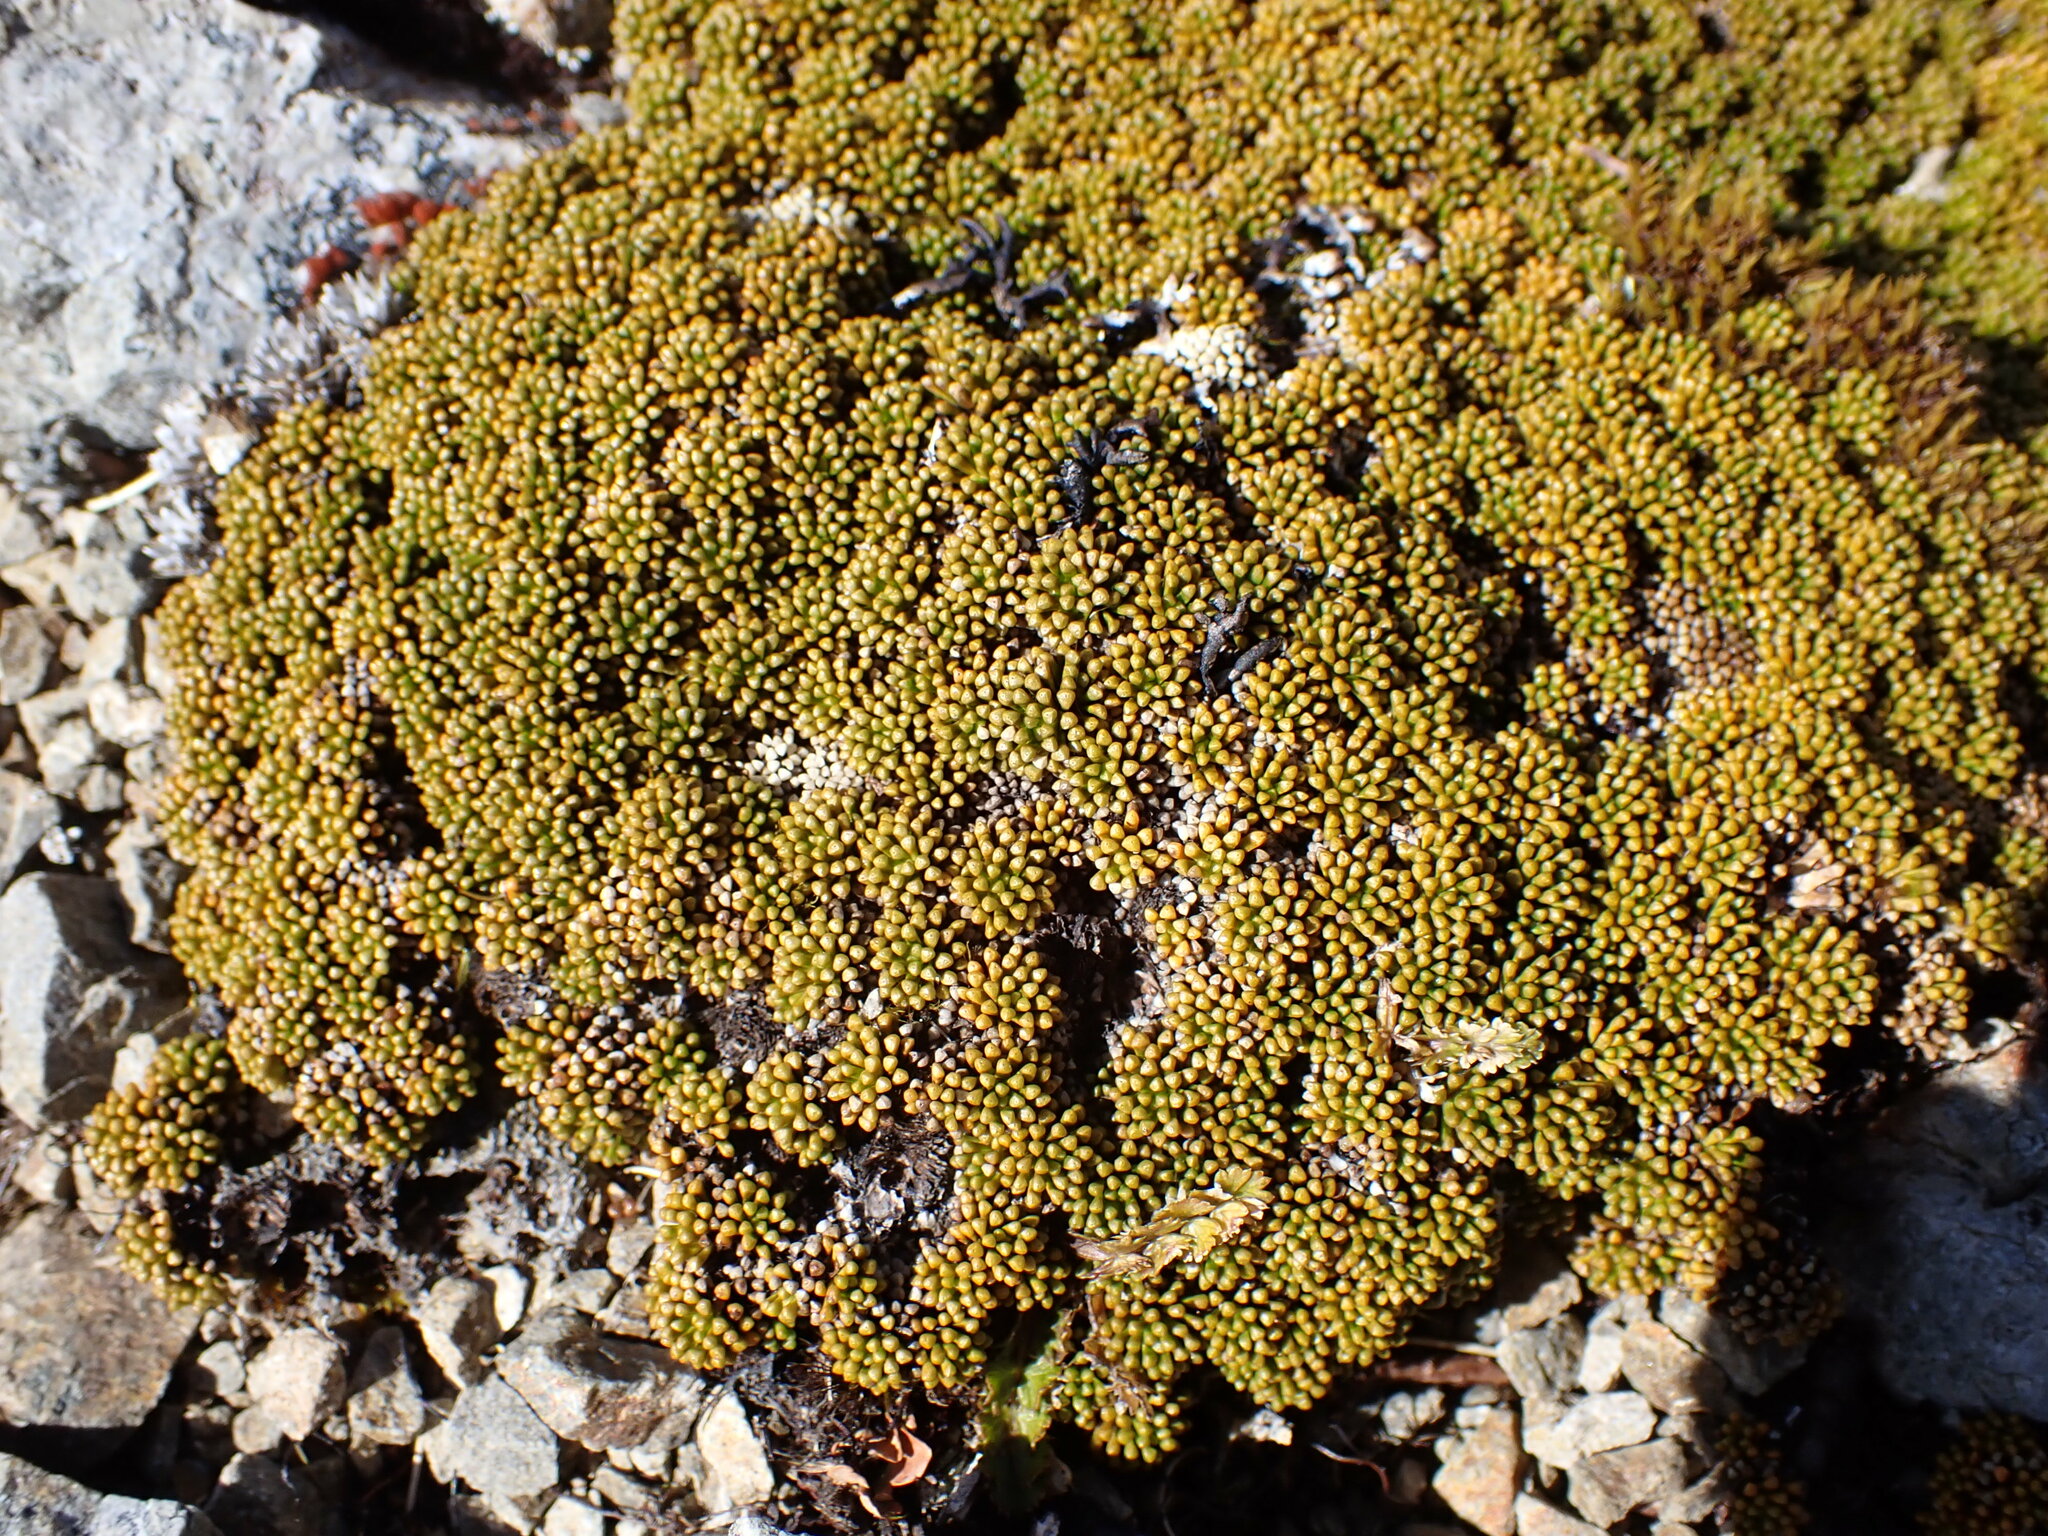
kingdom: Plantae
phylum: Tracheophyta
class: Magnoliopsida
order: Asterales
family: Stylidiaceae
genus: Phyllachne
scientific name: Phyllachne colensoi
